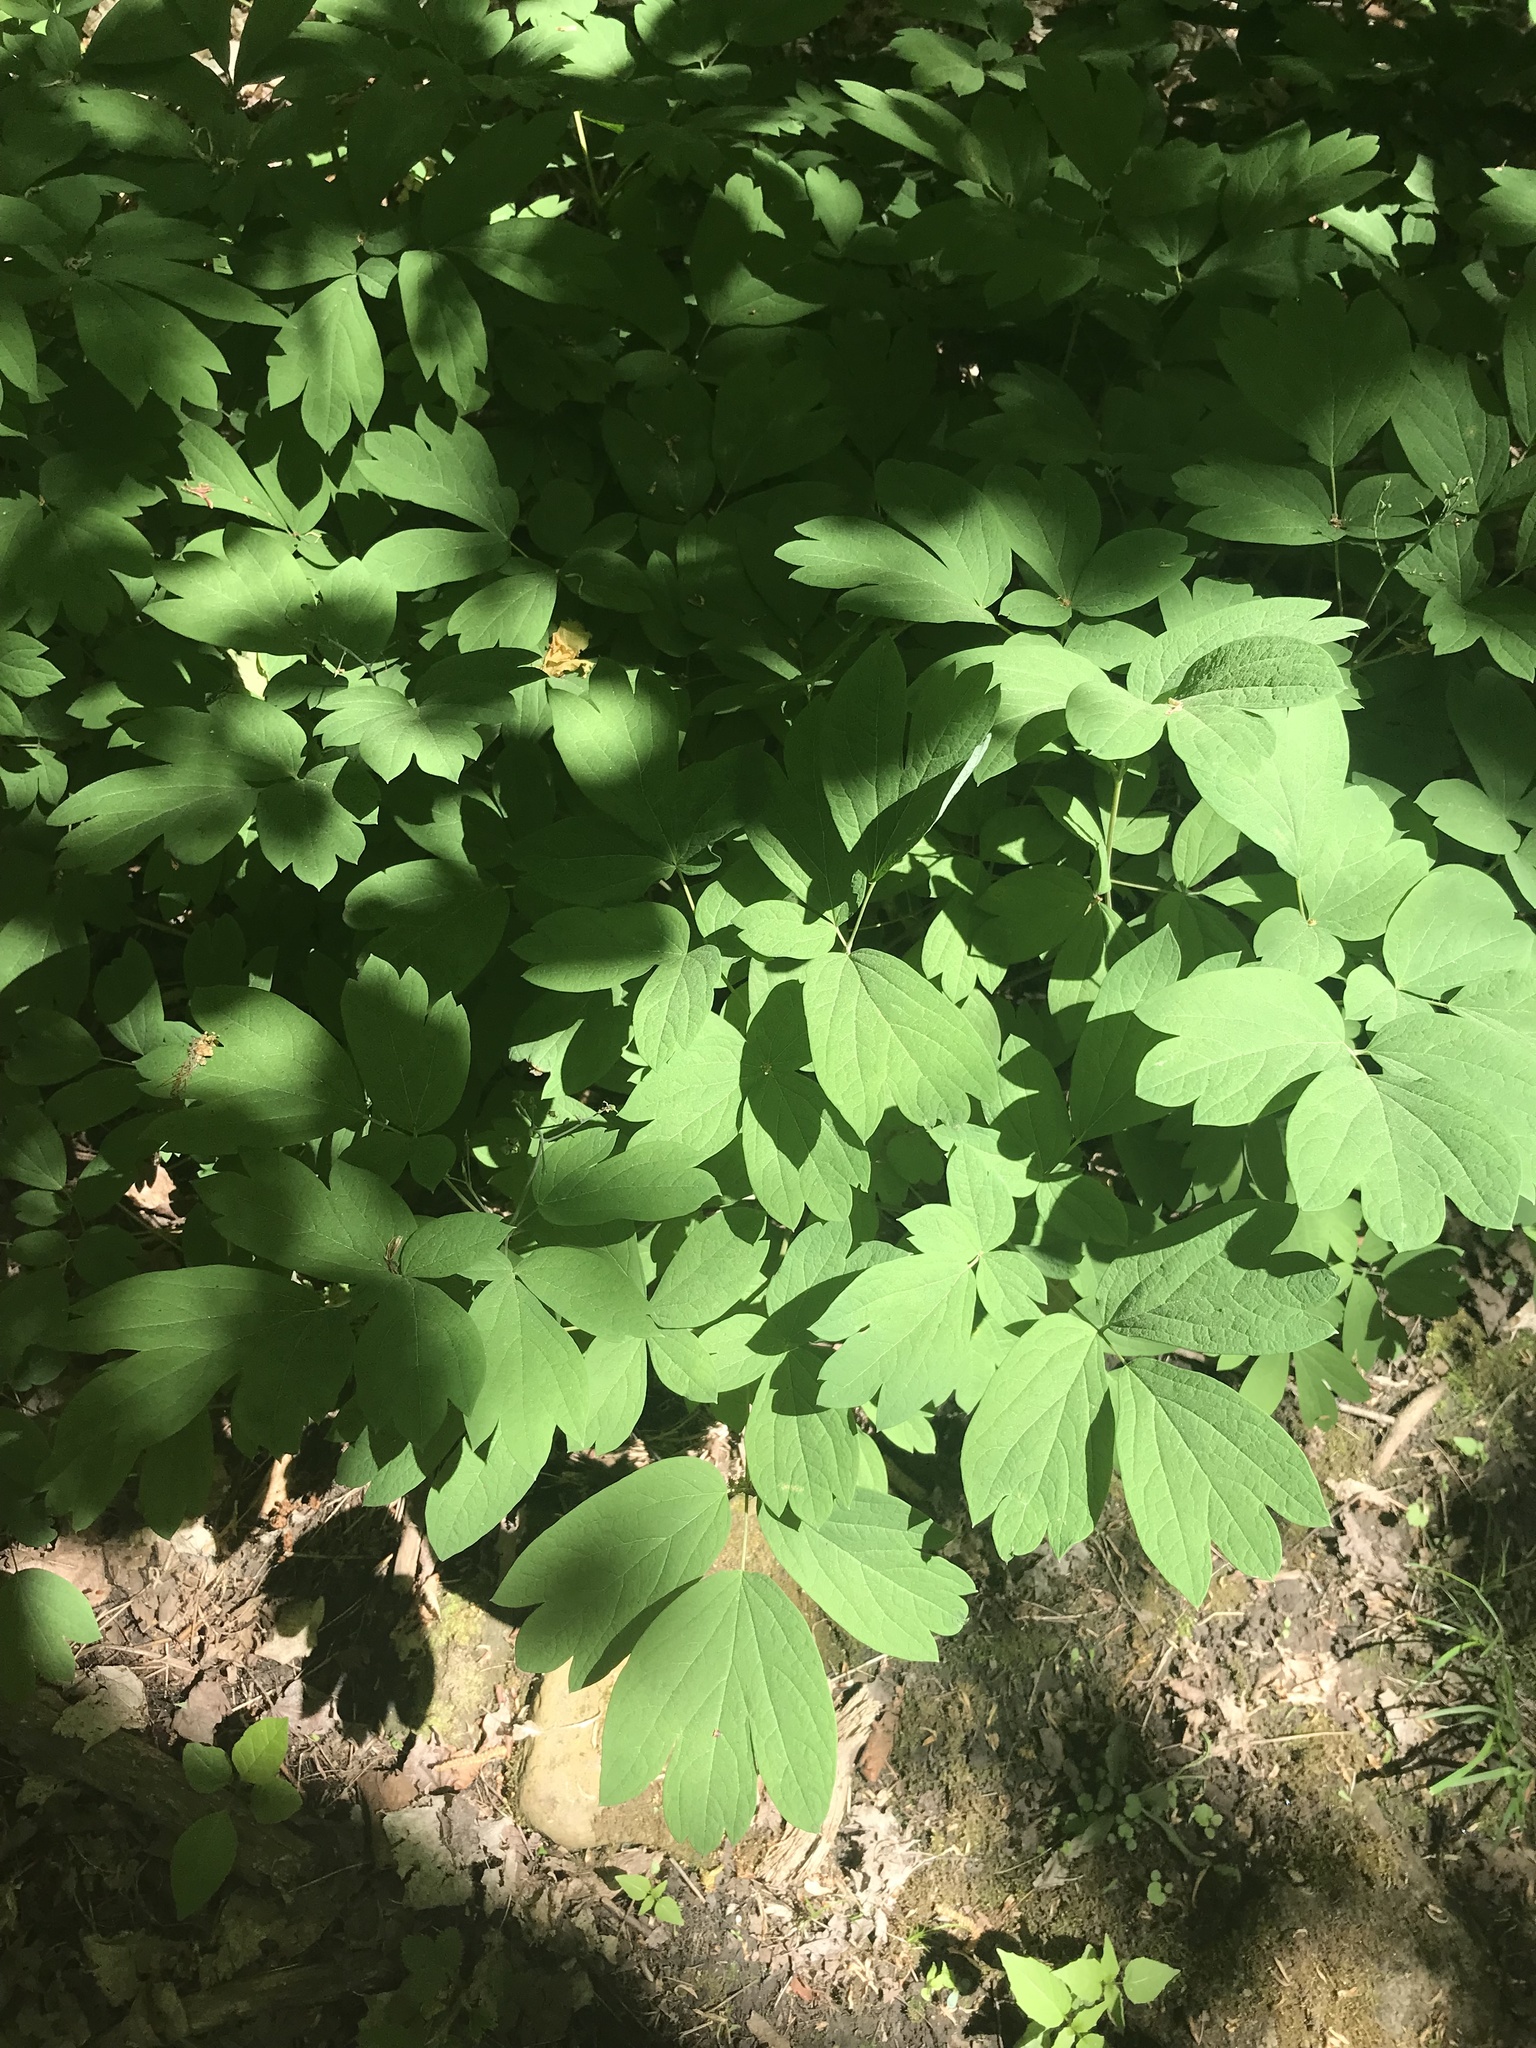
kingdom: Plantae
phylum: Tracheophyta
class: Magnoliopsida
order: Ranunculales
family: Berberidaceae
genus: Caulophyllum
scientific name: Caulophyllum giganteum
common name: Blue cohosh
